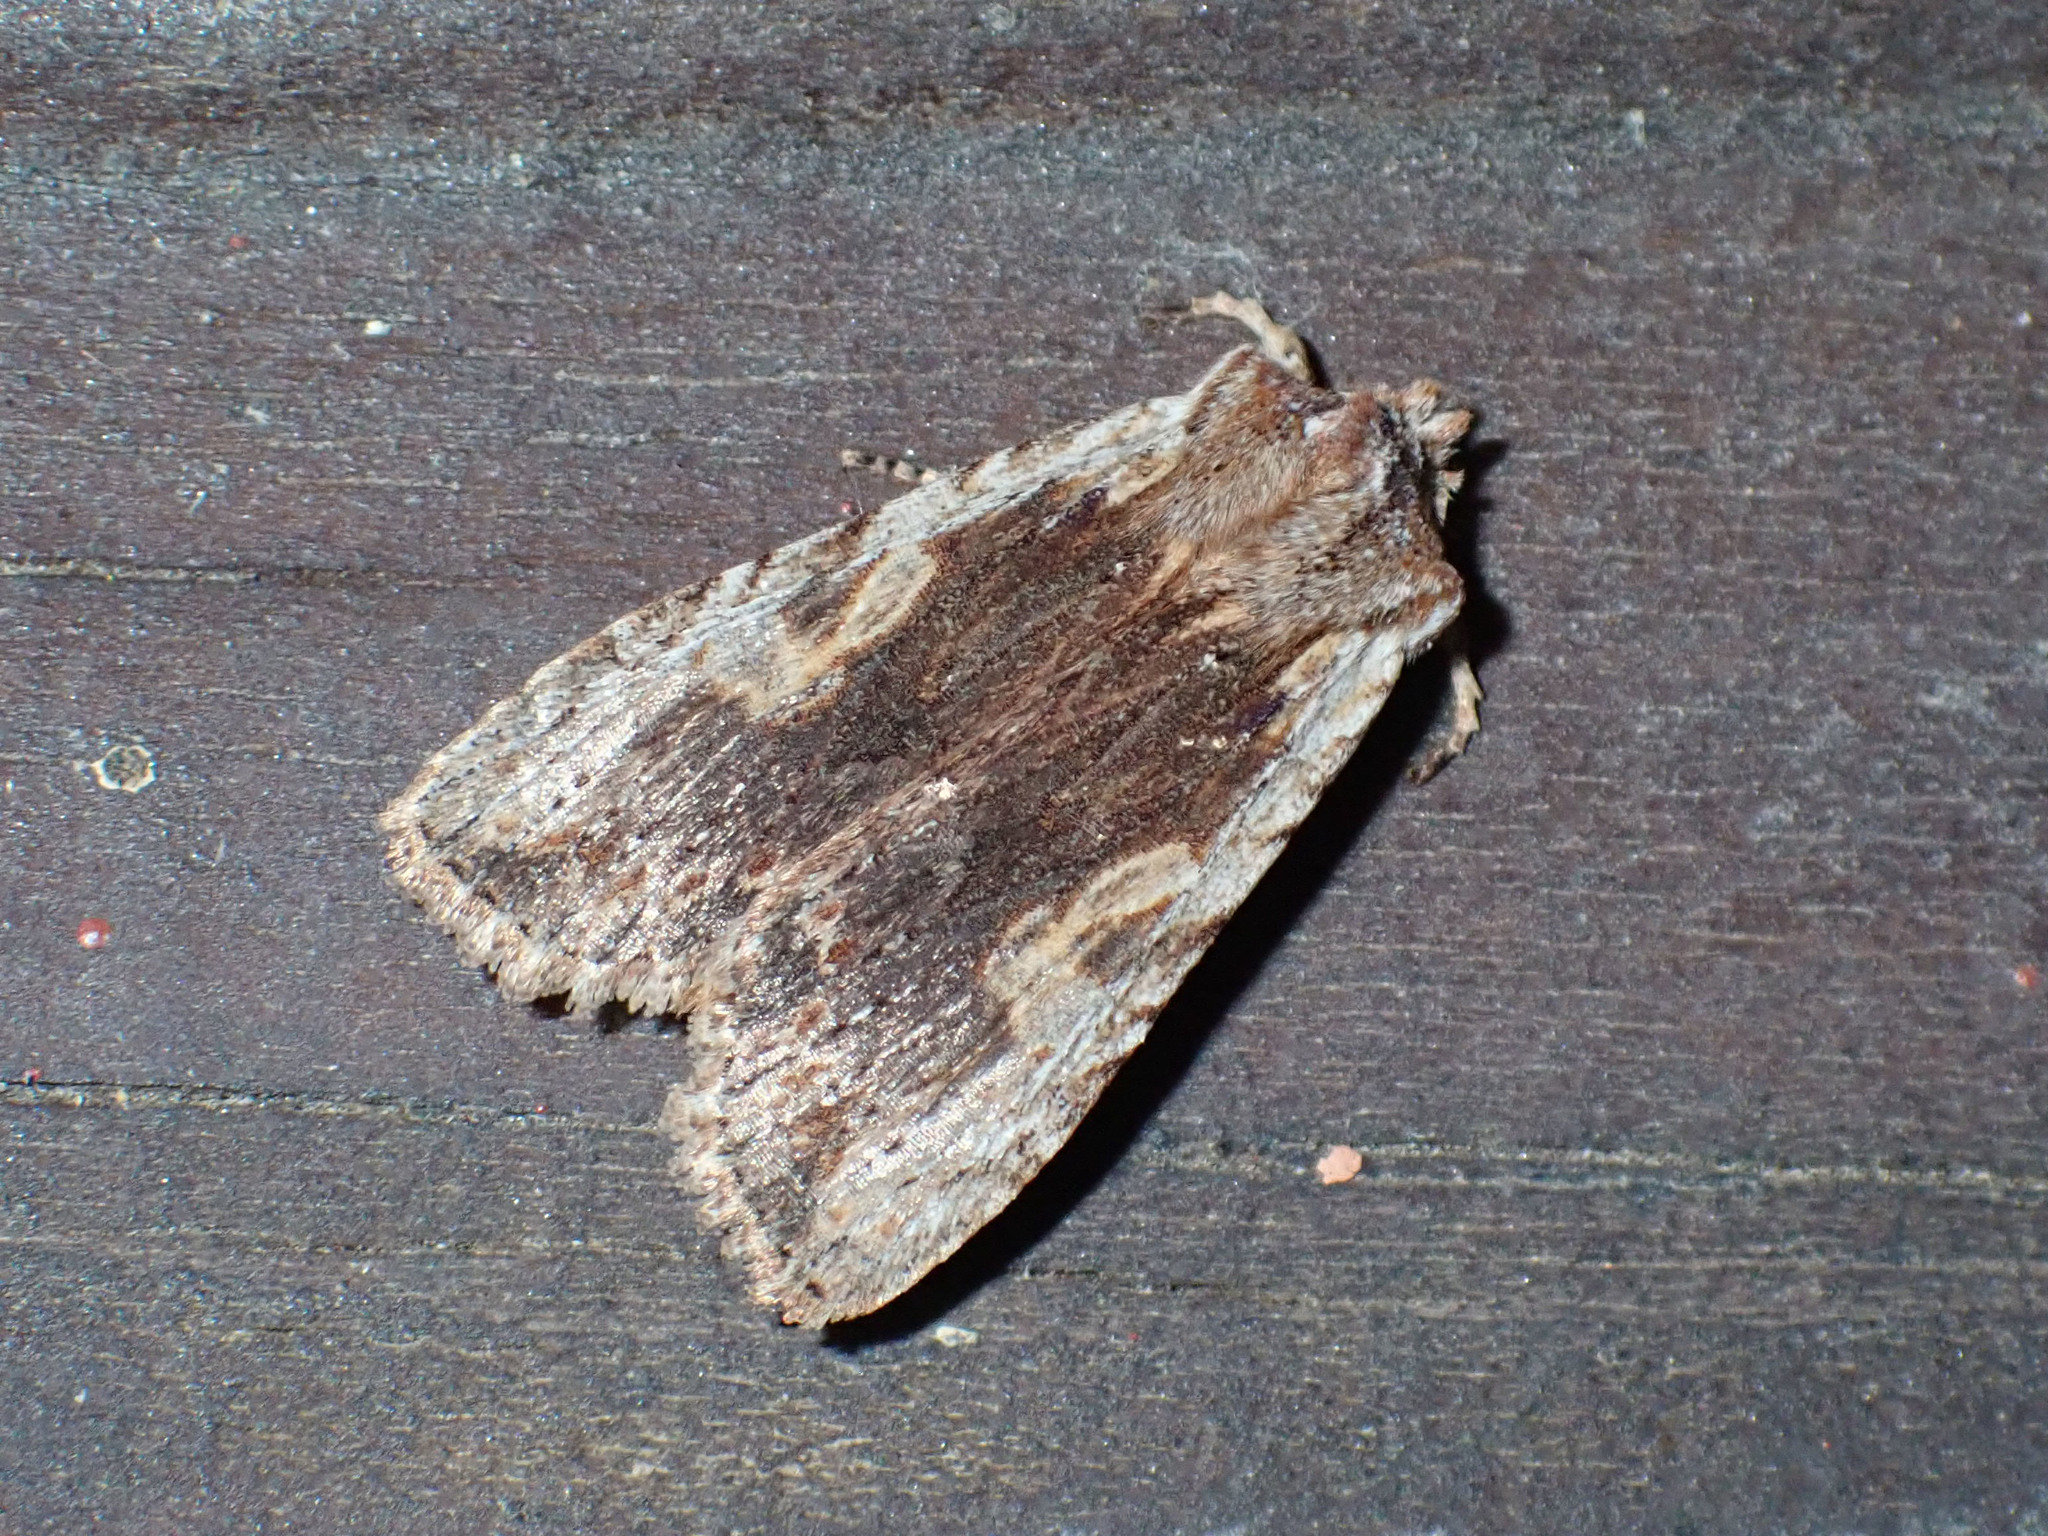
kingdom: Animalia
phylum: Arthropoda
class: Insecta
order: Lepidoptera
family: Noctuidae
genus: Lithophane
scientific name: Lithophane petulca
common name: Wanton pinion
